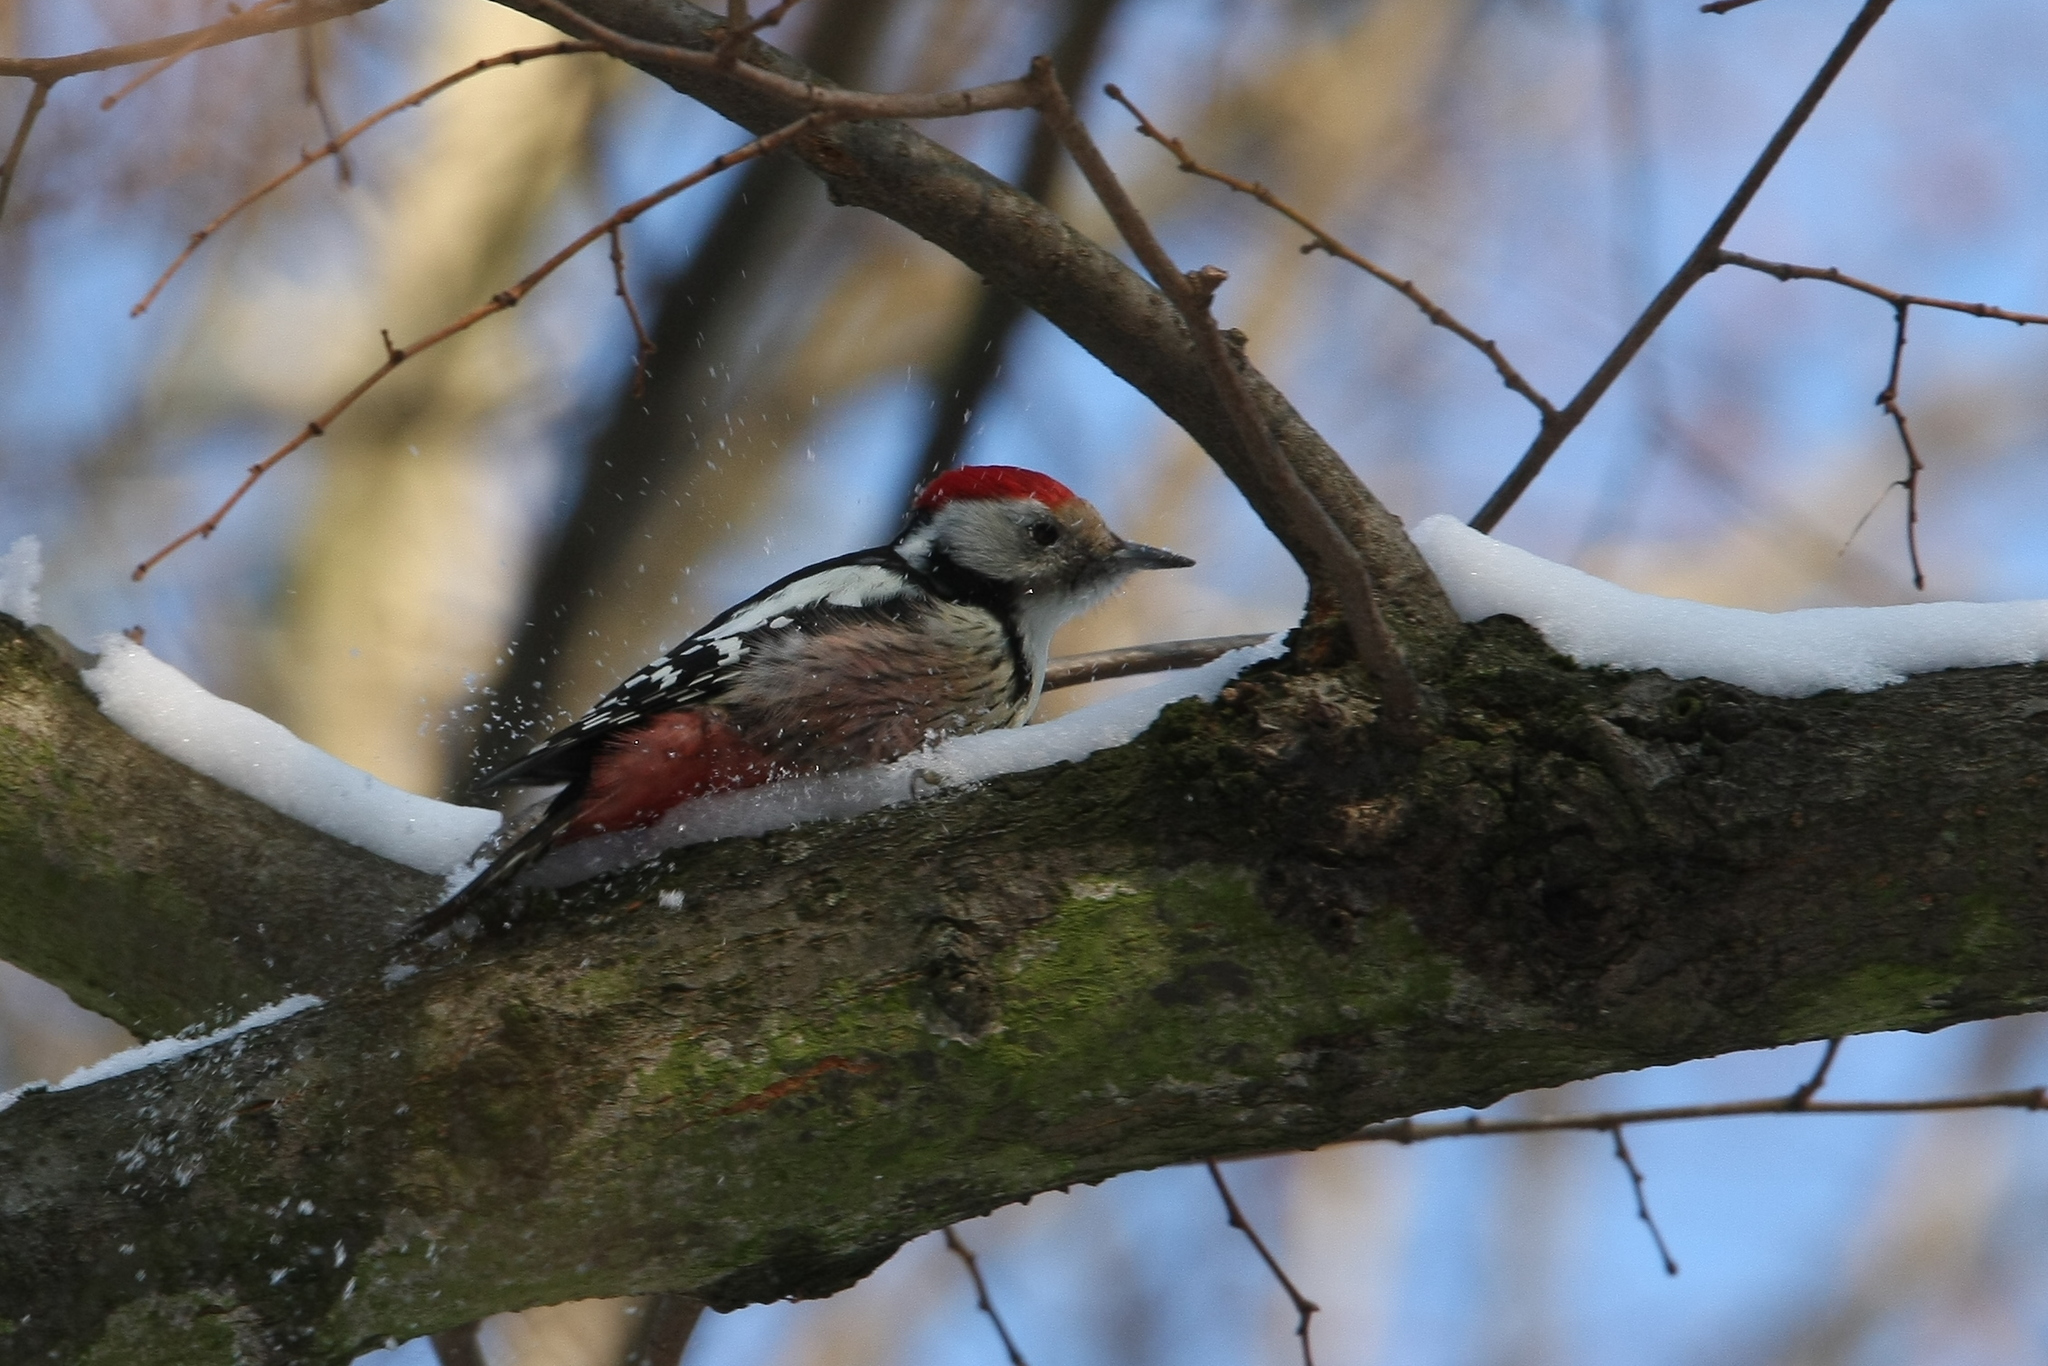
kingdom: Animalia
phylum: Chordata
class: Aves
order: Piciformes
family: Picidae
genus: Dendrocoptes
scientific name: Dendrocoptes medius
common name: Middle spotted woodpecker
